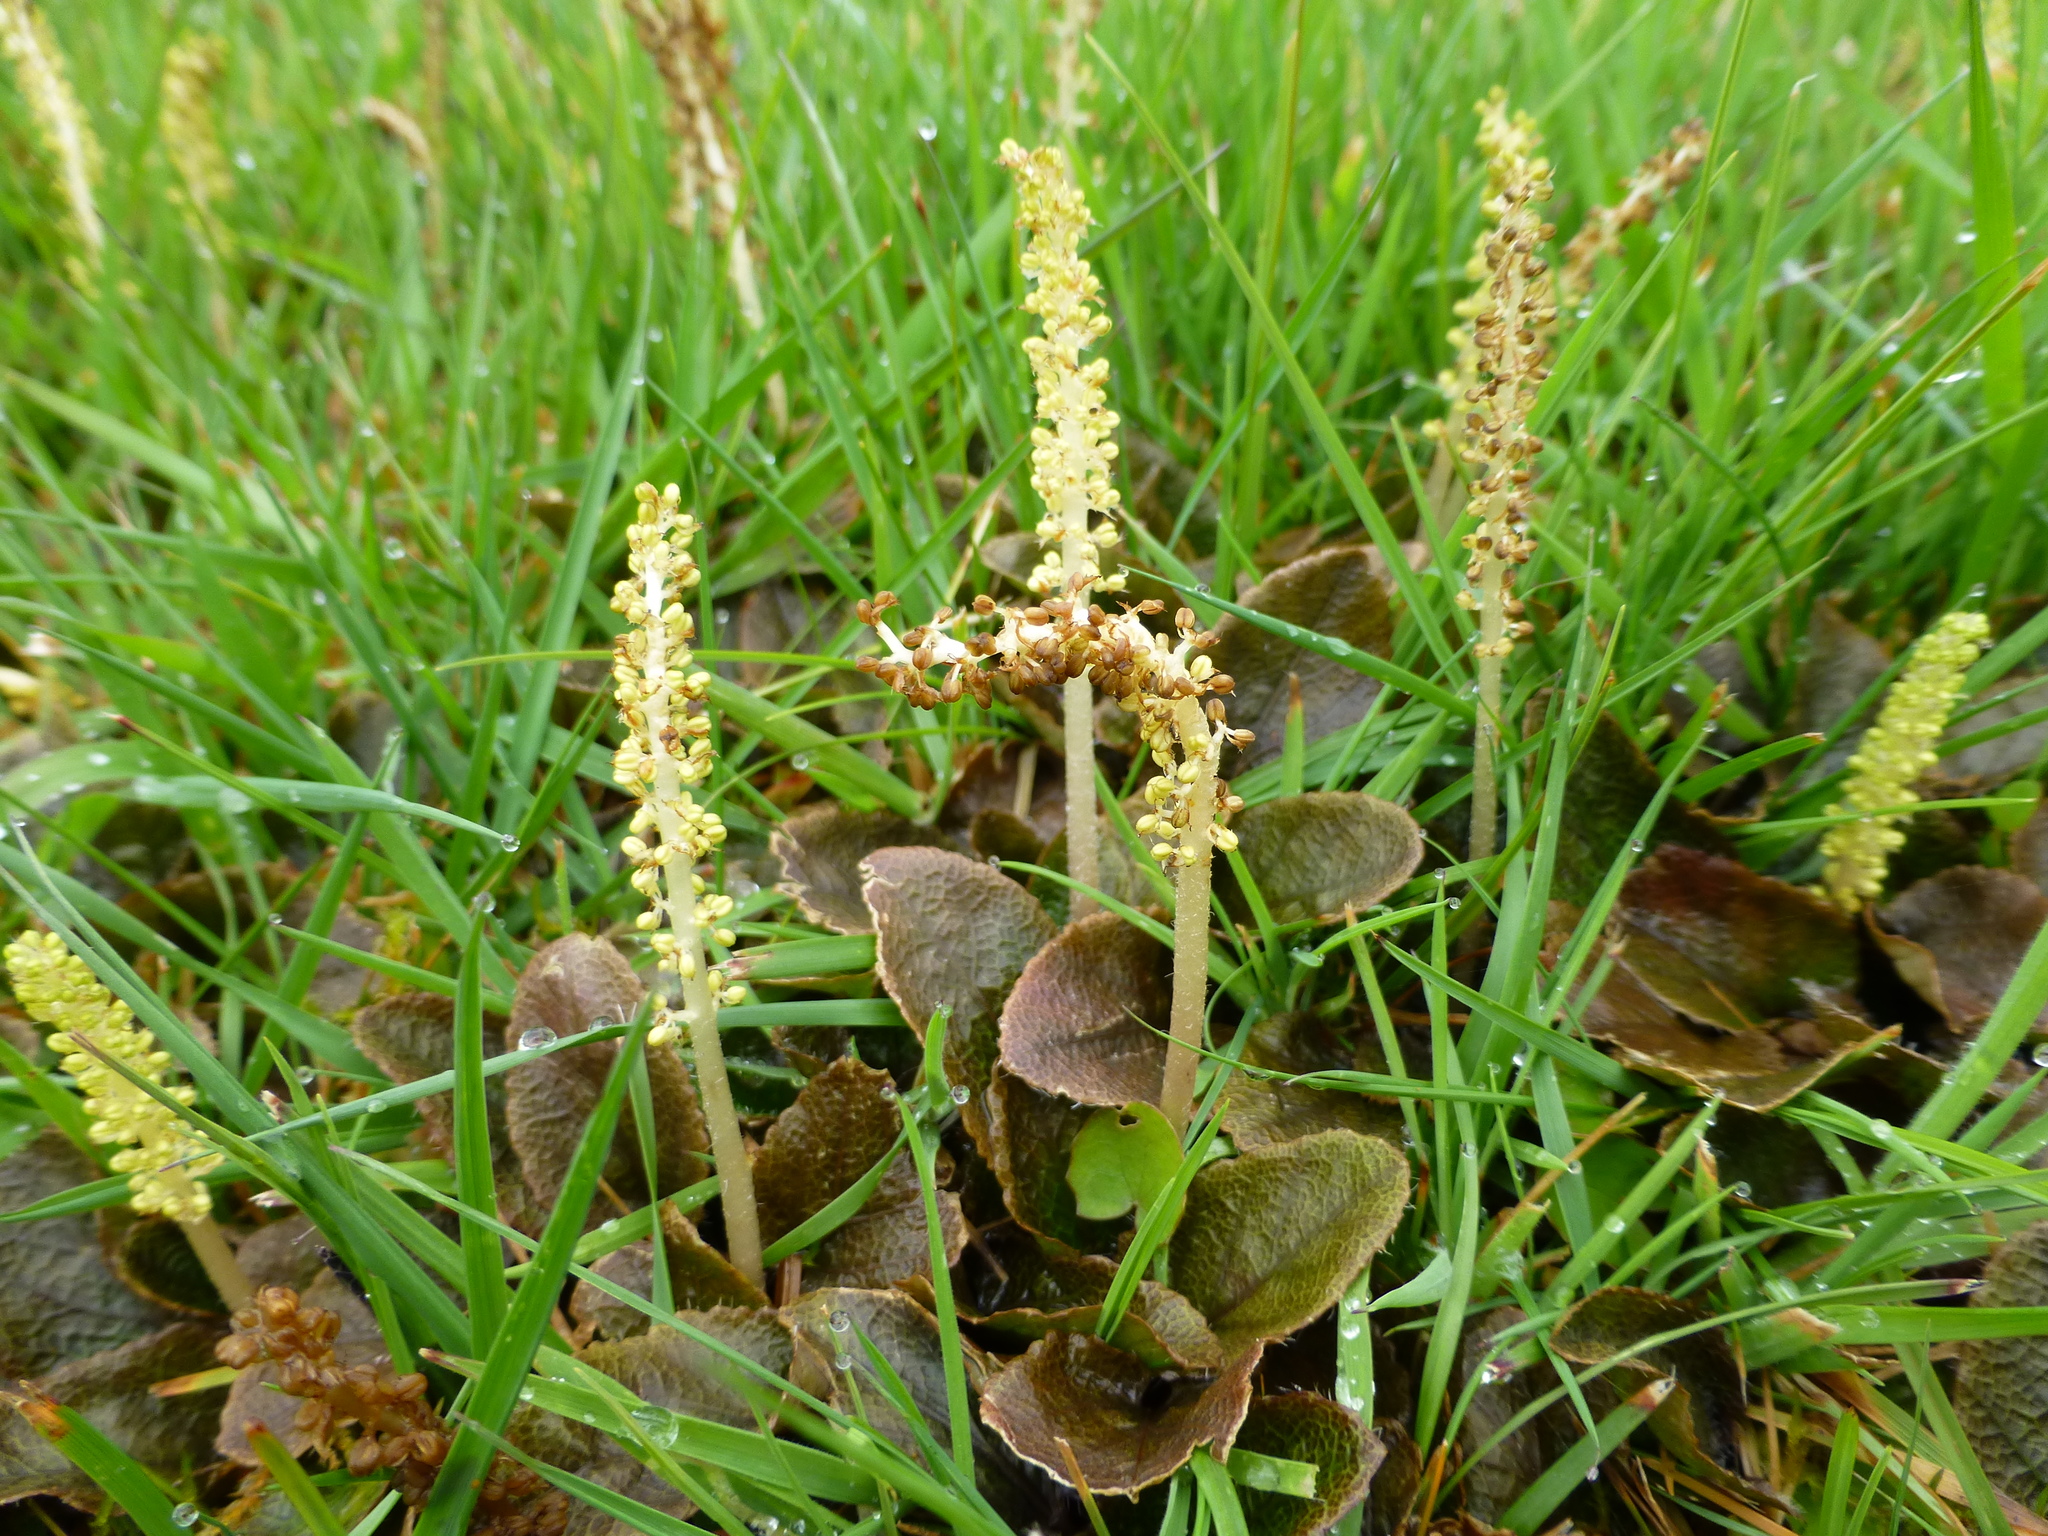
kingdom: Plantae
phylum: Tracheophyta
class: Magnoliopsida
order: Gunnerales
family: Gunneraceae
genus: Gunnera
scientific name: Gunnera prorepens
